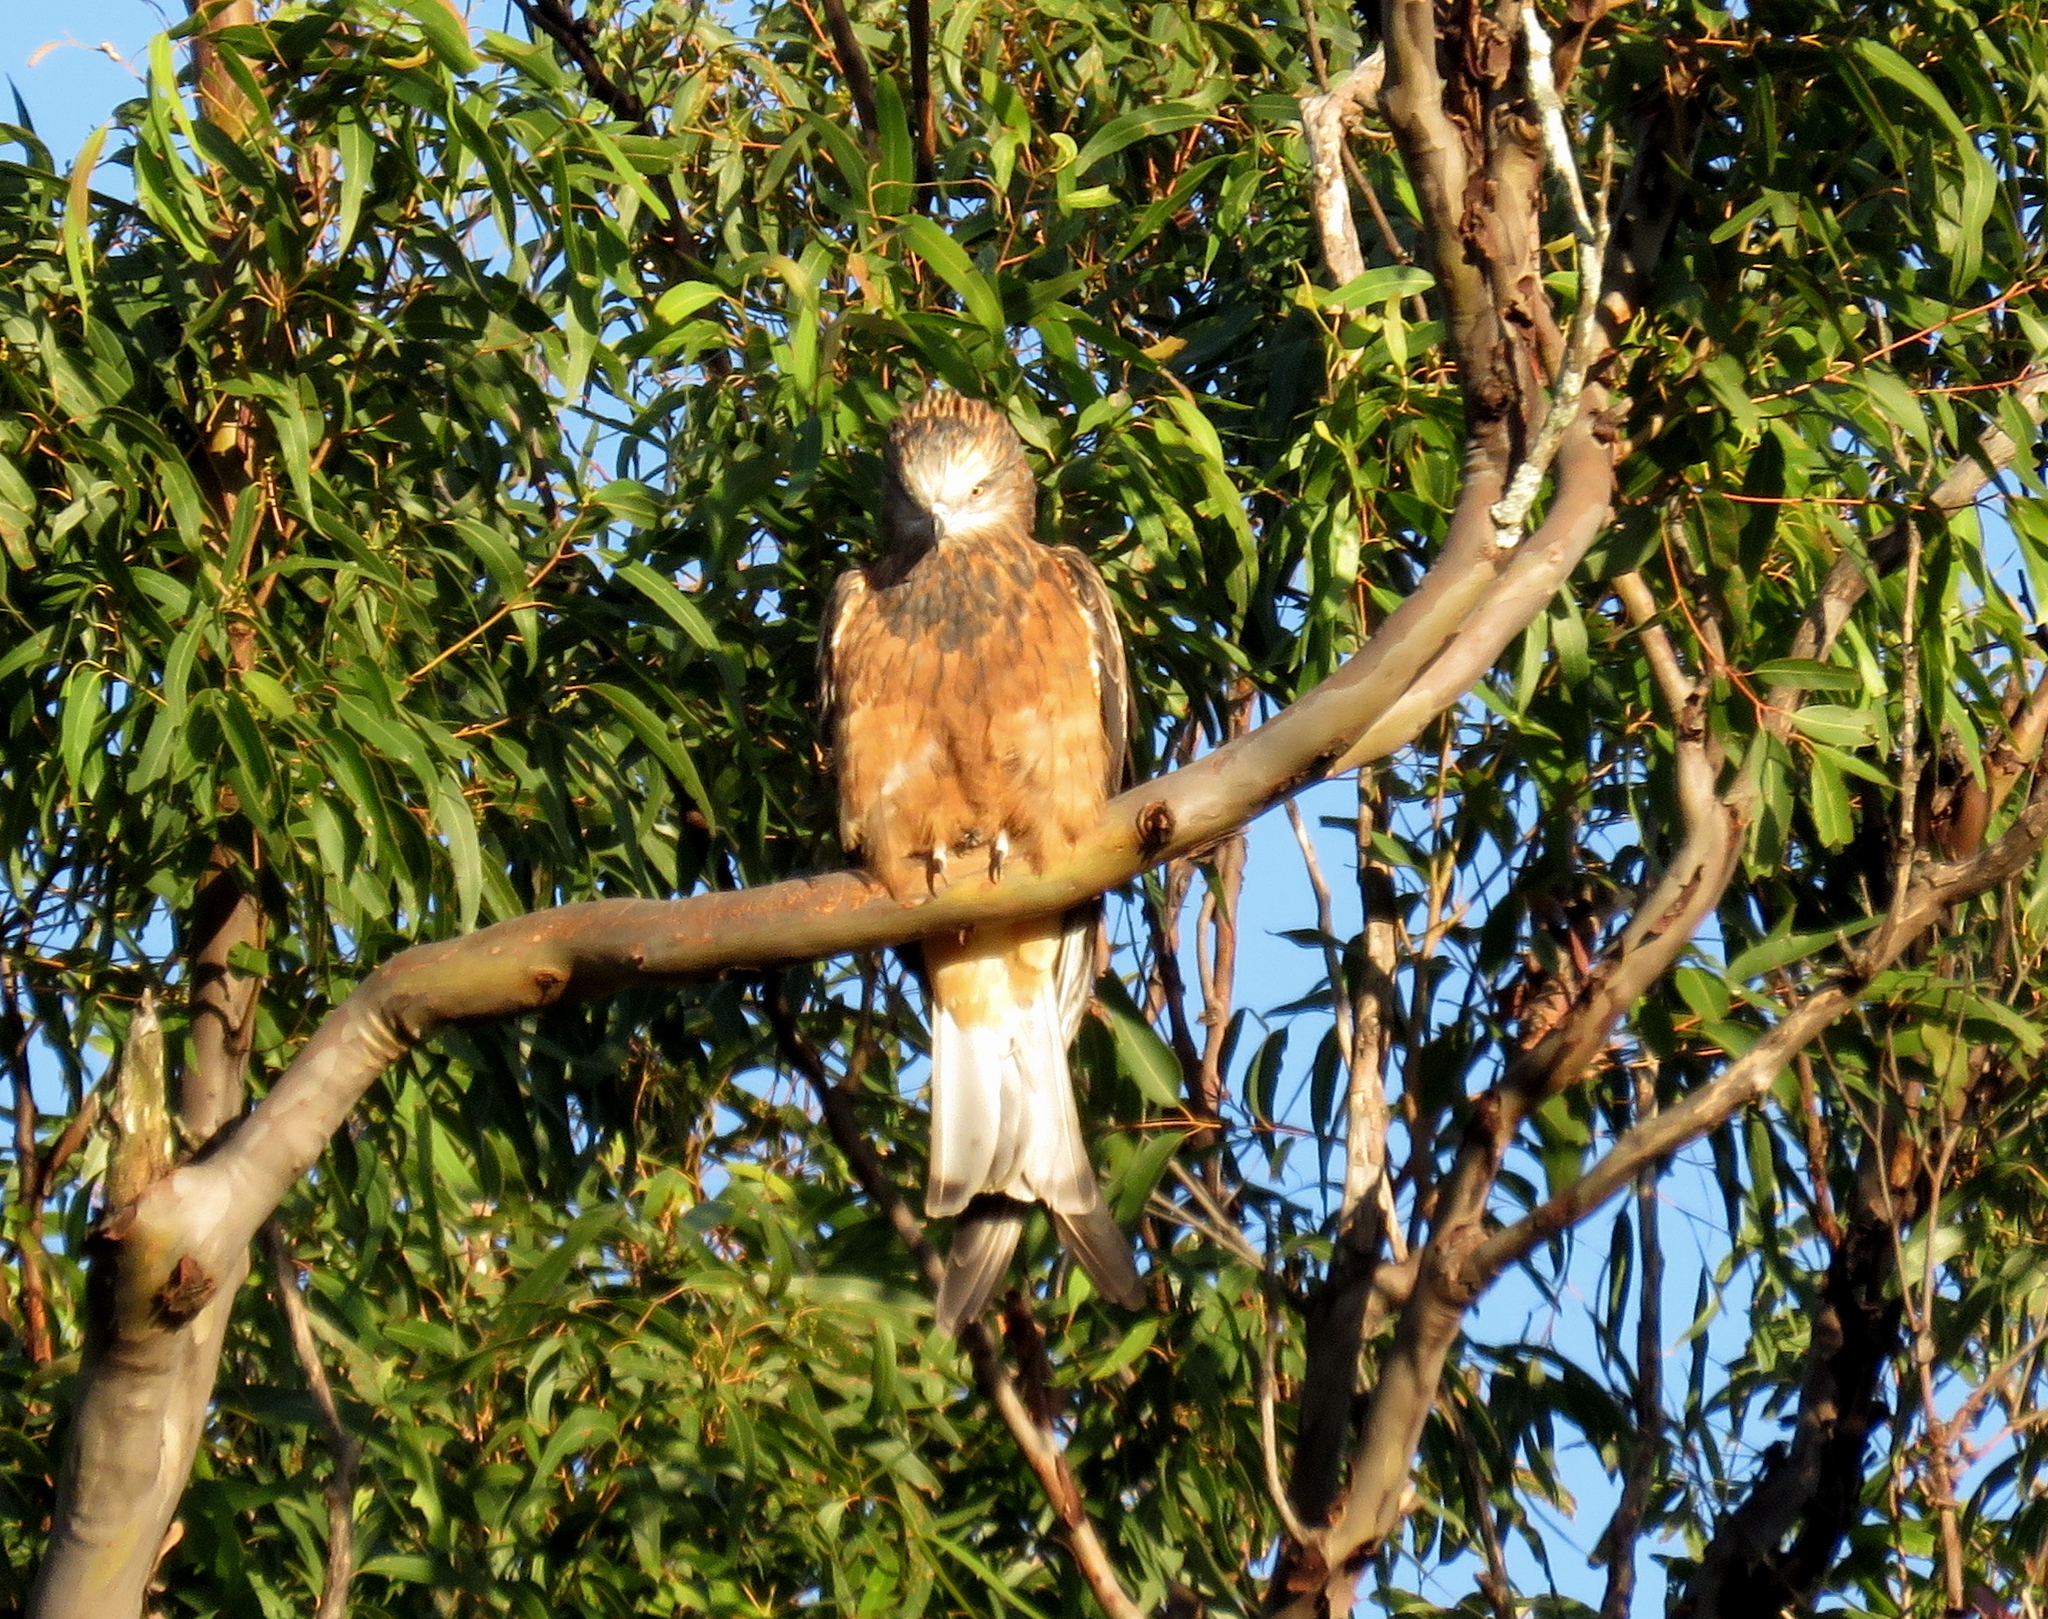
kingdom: Animalia
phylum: Chordata
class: Aves
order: Accipitriformes
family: Accipitridae
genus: Lophoictinia
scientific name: Lophoictinia isura
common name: Square-tailed kite
